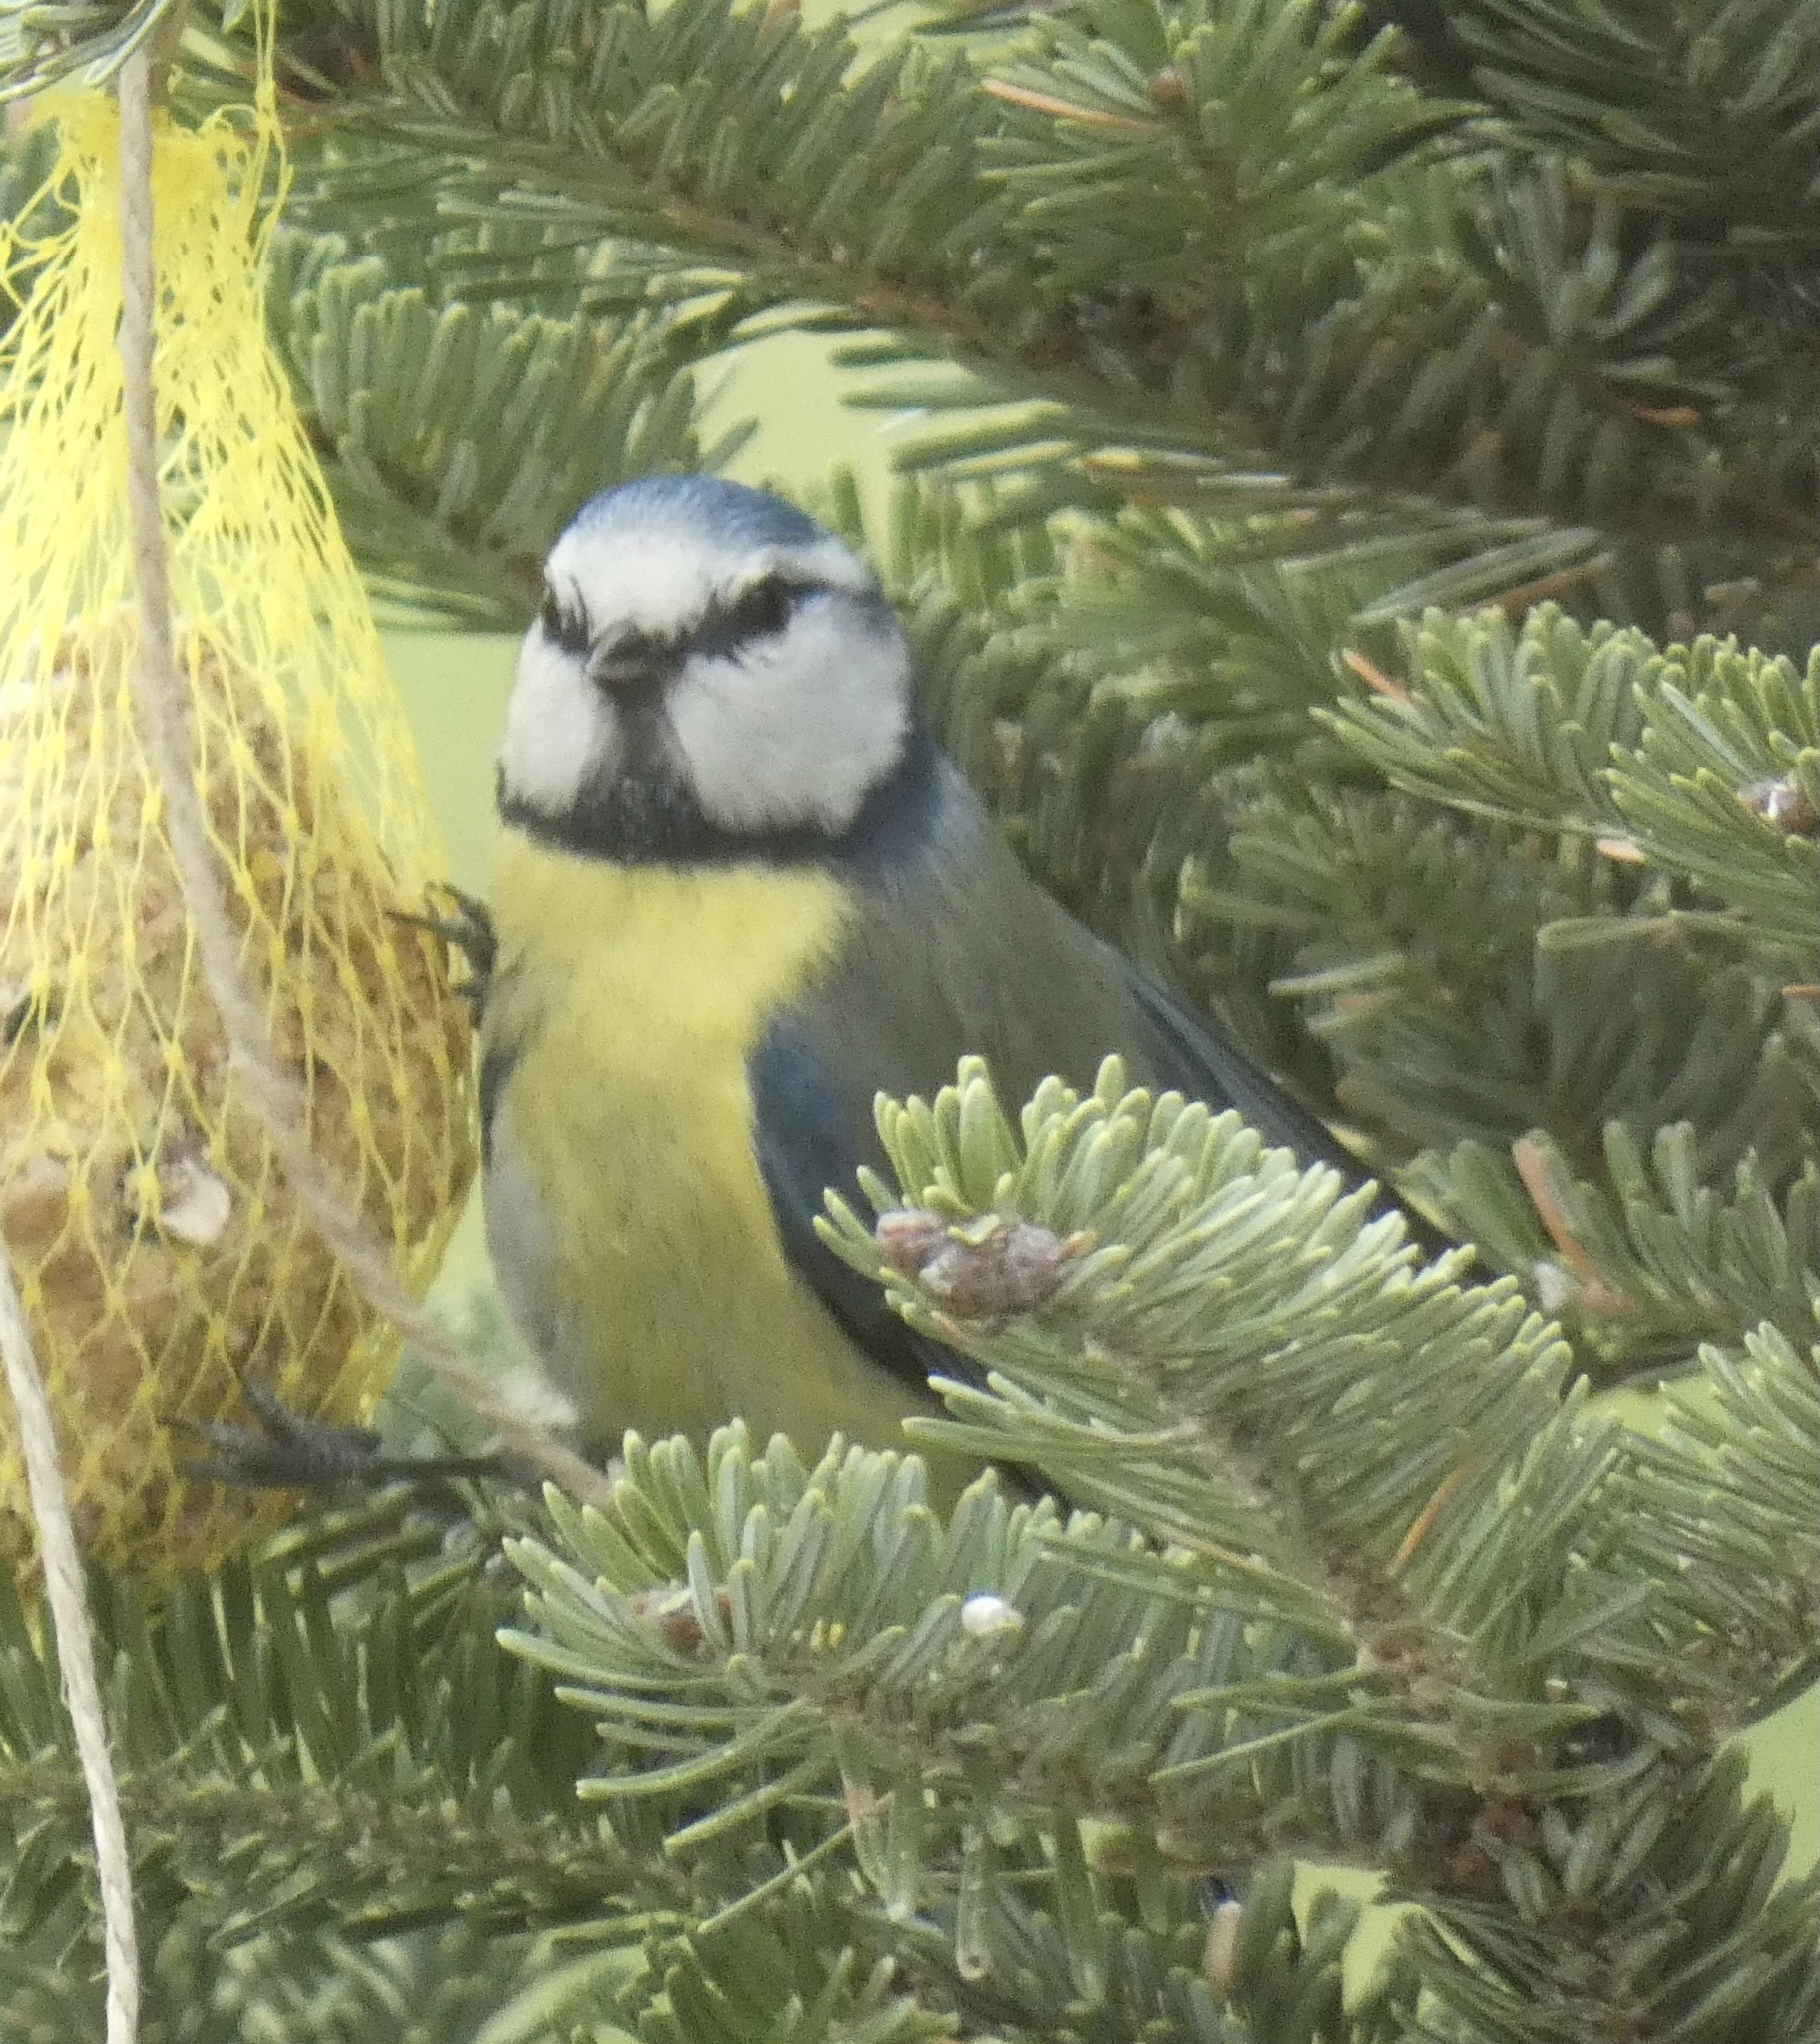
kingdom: Animalia
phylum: Chordata
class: Aves
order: Passeriformes
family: Paridae
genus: Cyanistes
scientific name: Cyanistes caeruleus
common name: Eurasian blue tit
